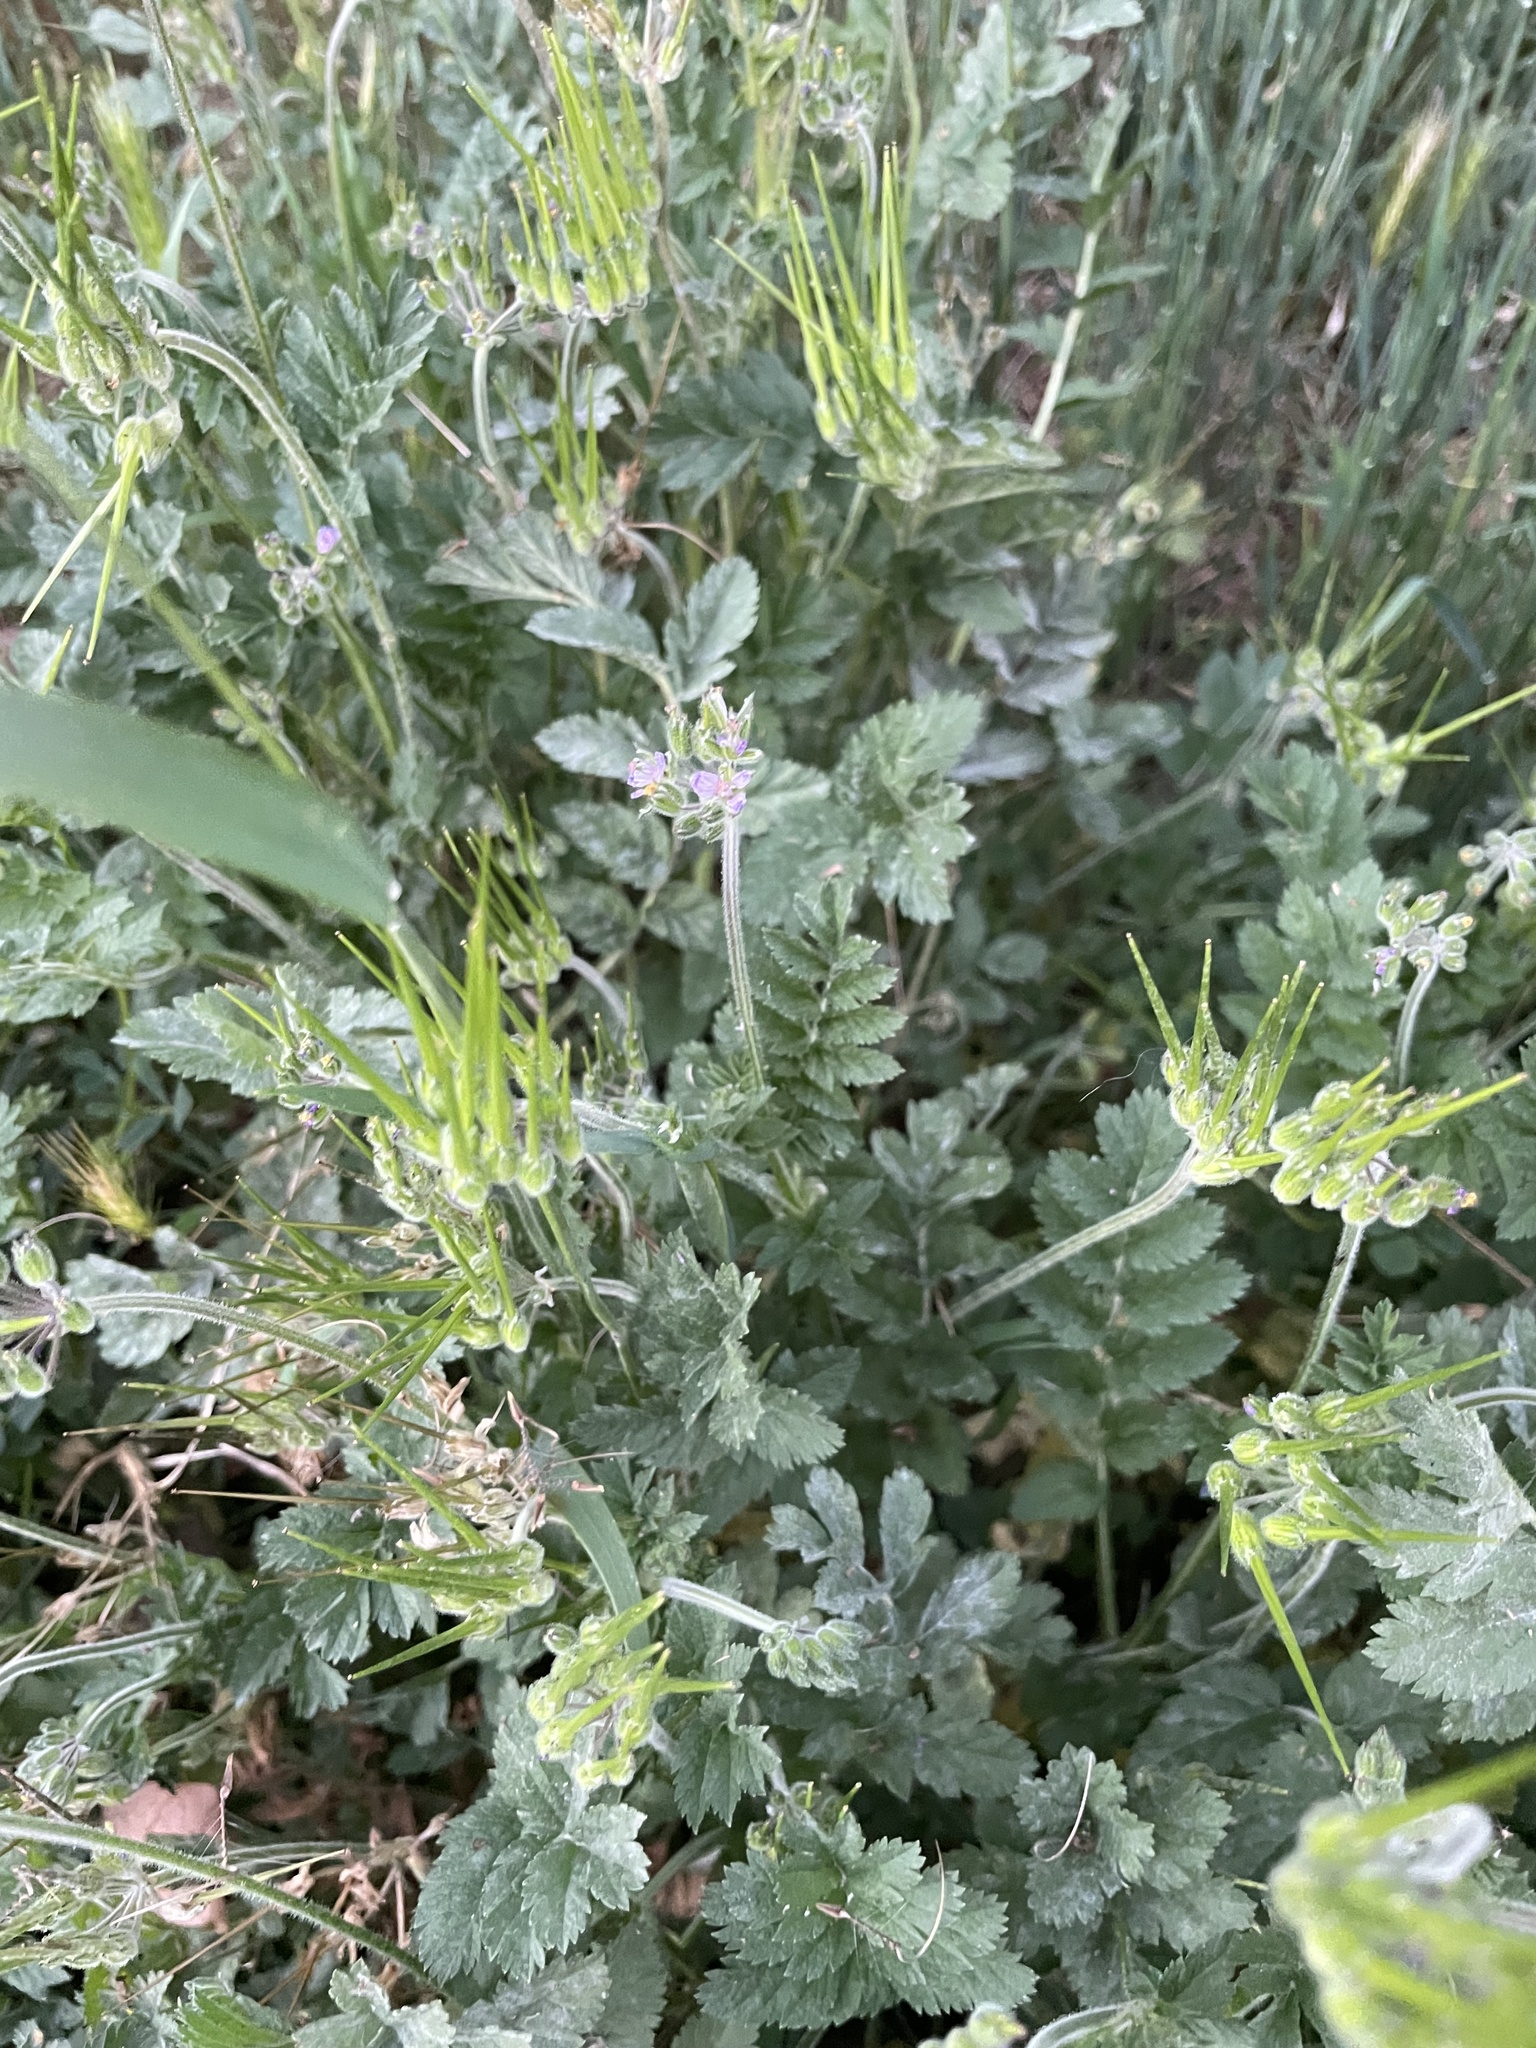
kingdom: Plantae
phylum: Tracheophyta
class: Magnoliopsida
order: Geraniales
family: Geraniaceae
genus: Erodium
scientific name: Erodium moschatum
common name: Musk stork's-bill
